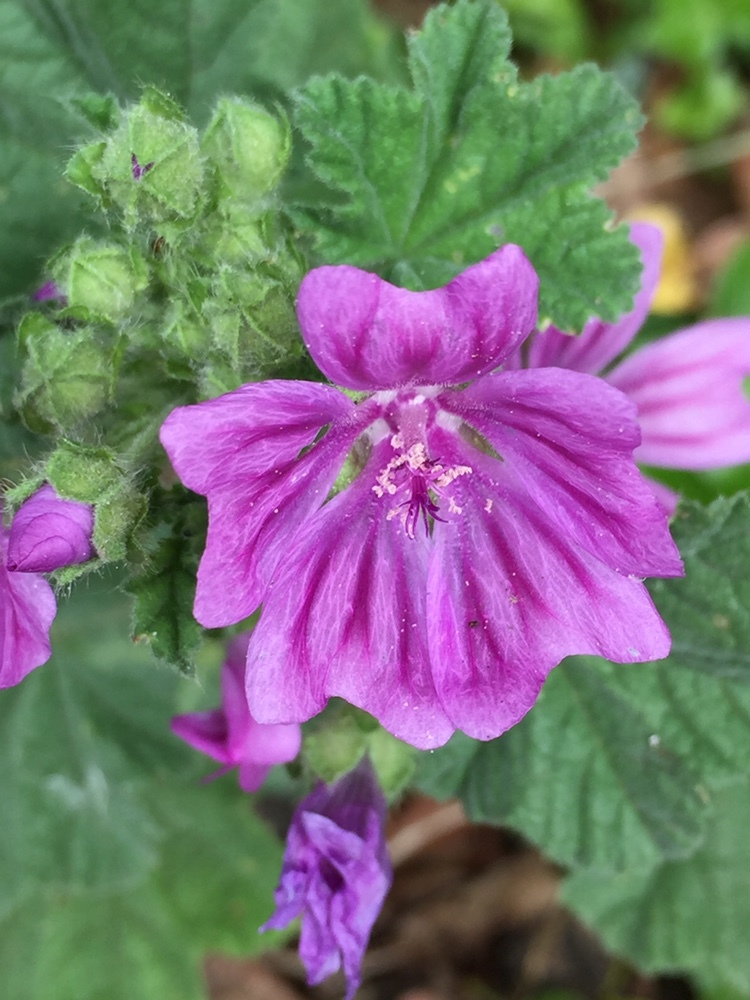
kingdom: Plantae
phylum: Tracheophyta
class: Magnoliopsida
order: Malvales
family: Malvaceae
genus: Malva
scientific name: Malva sylvestris
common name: Common mallow
